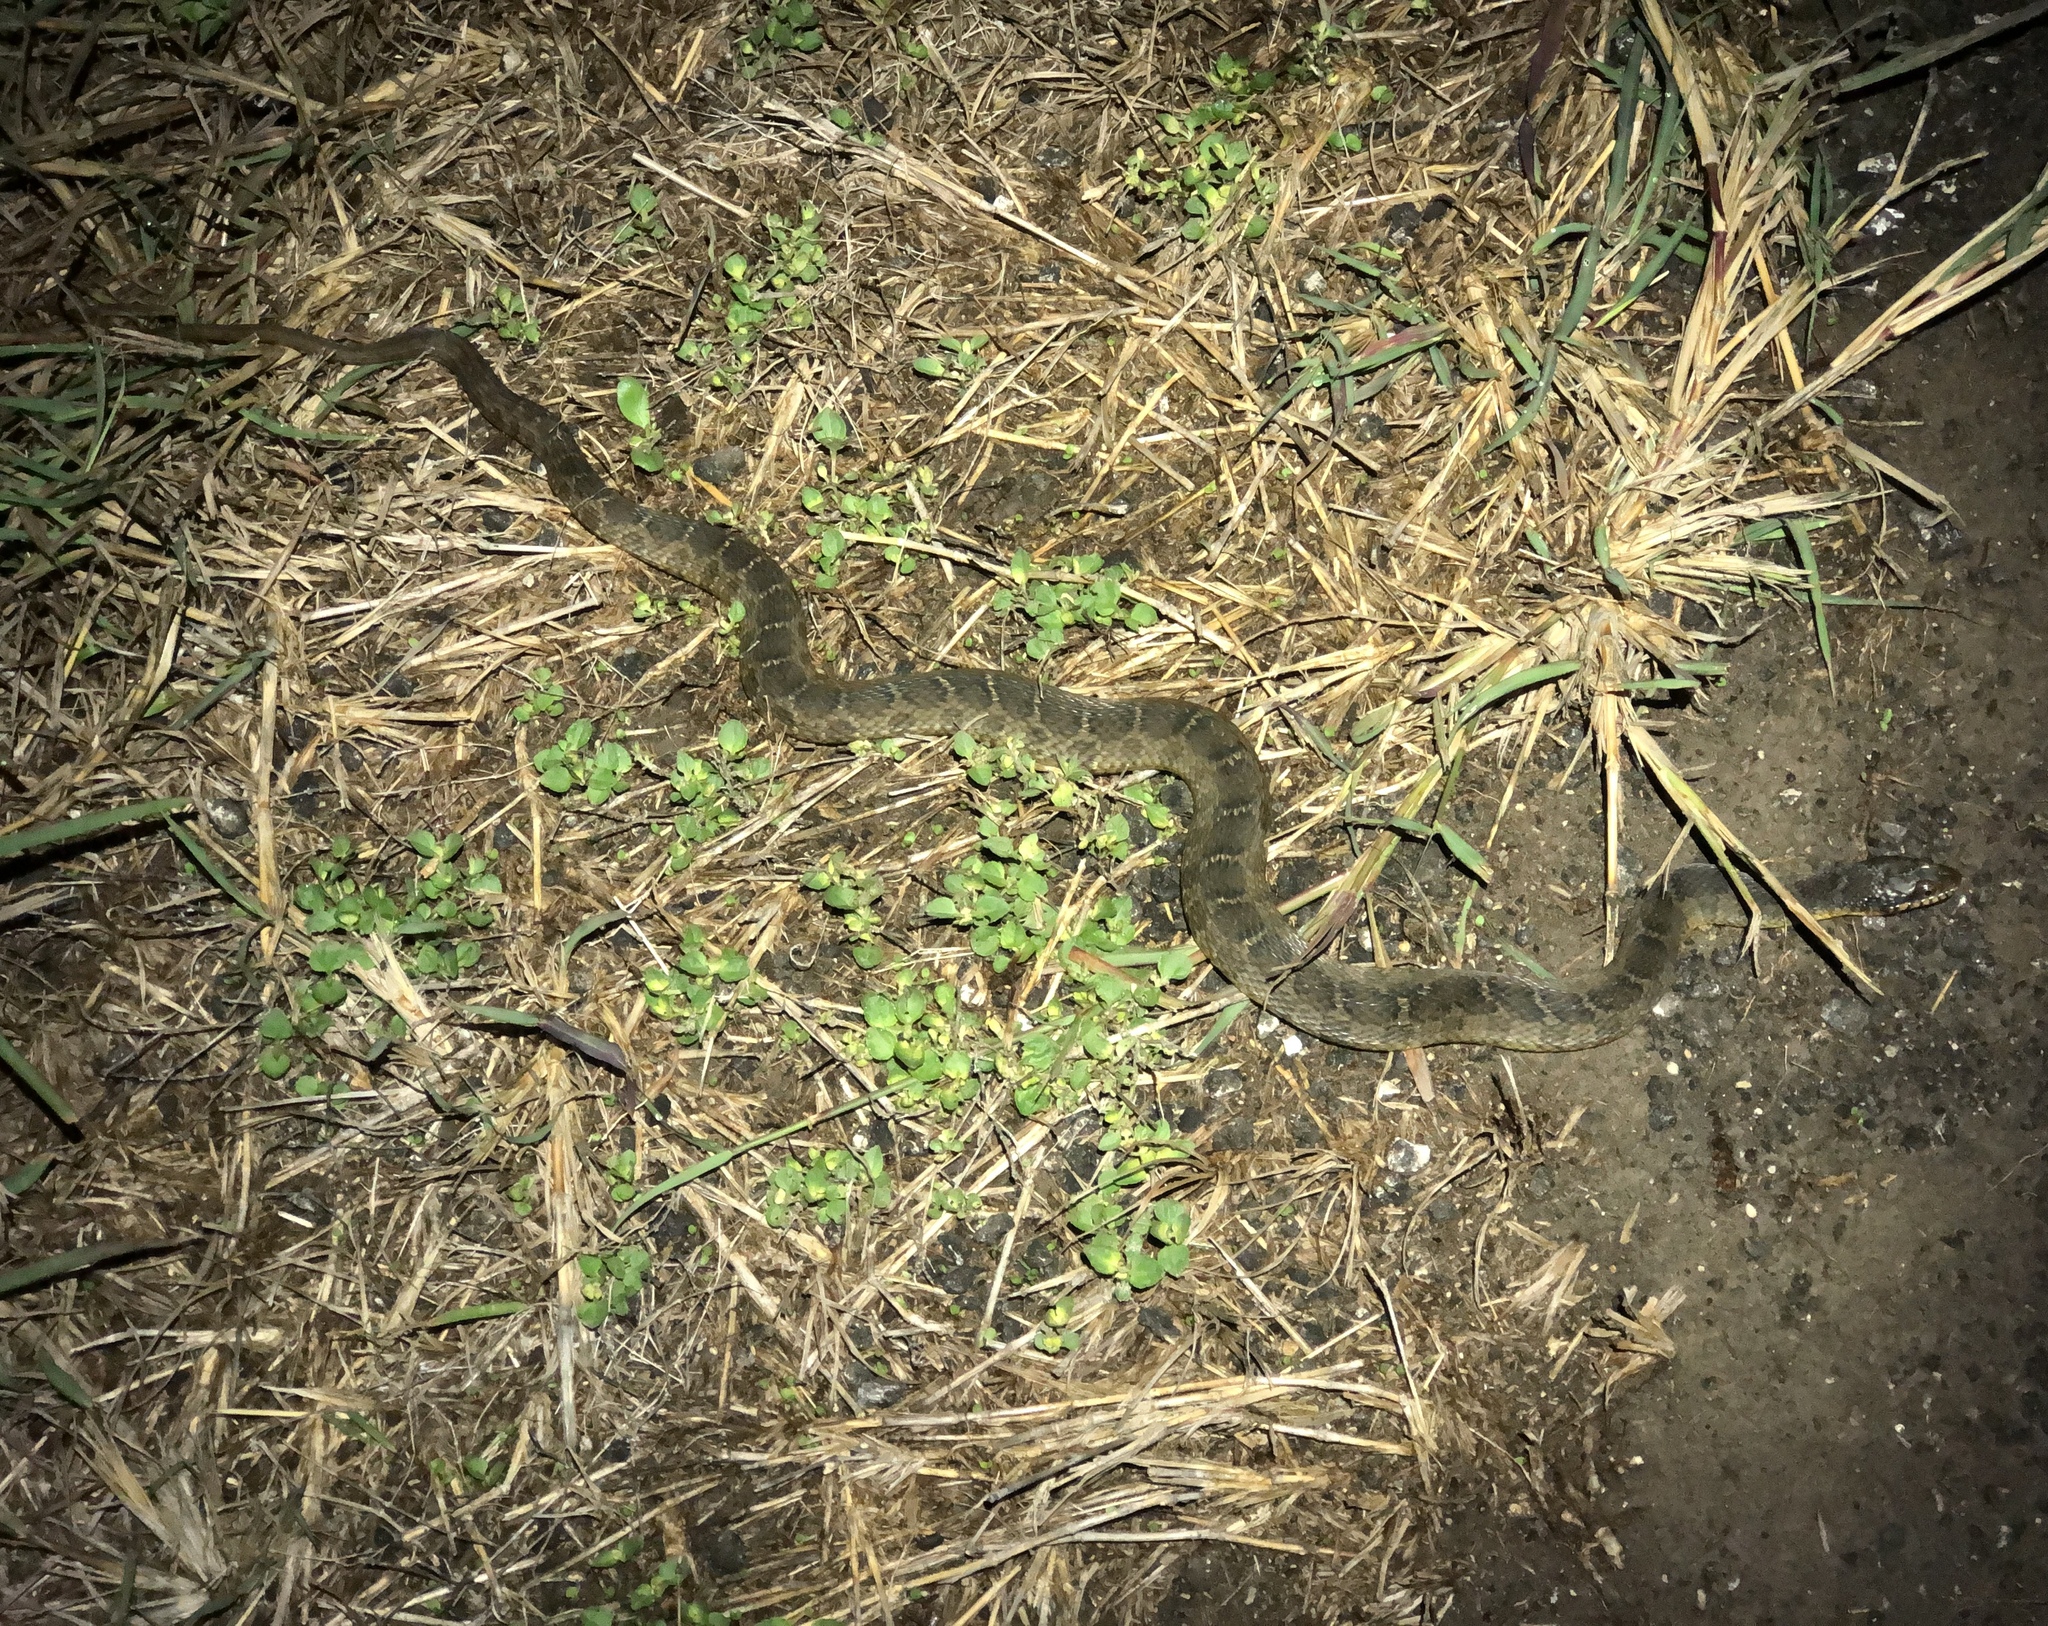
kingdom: Animalia
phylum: Chordata
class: Squamata
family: Colubridae
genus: Nerodia
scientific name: Nerodia erythrogaster
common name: Plainbelly water snake
